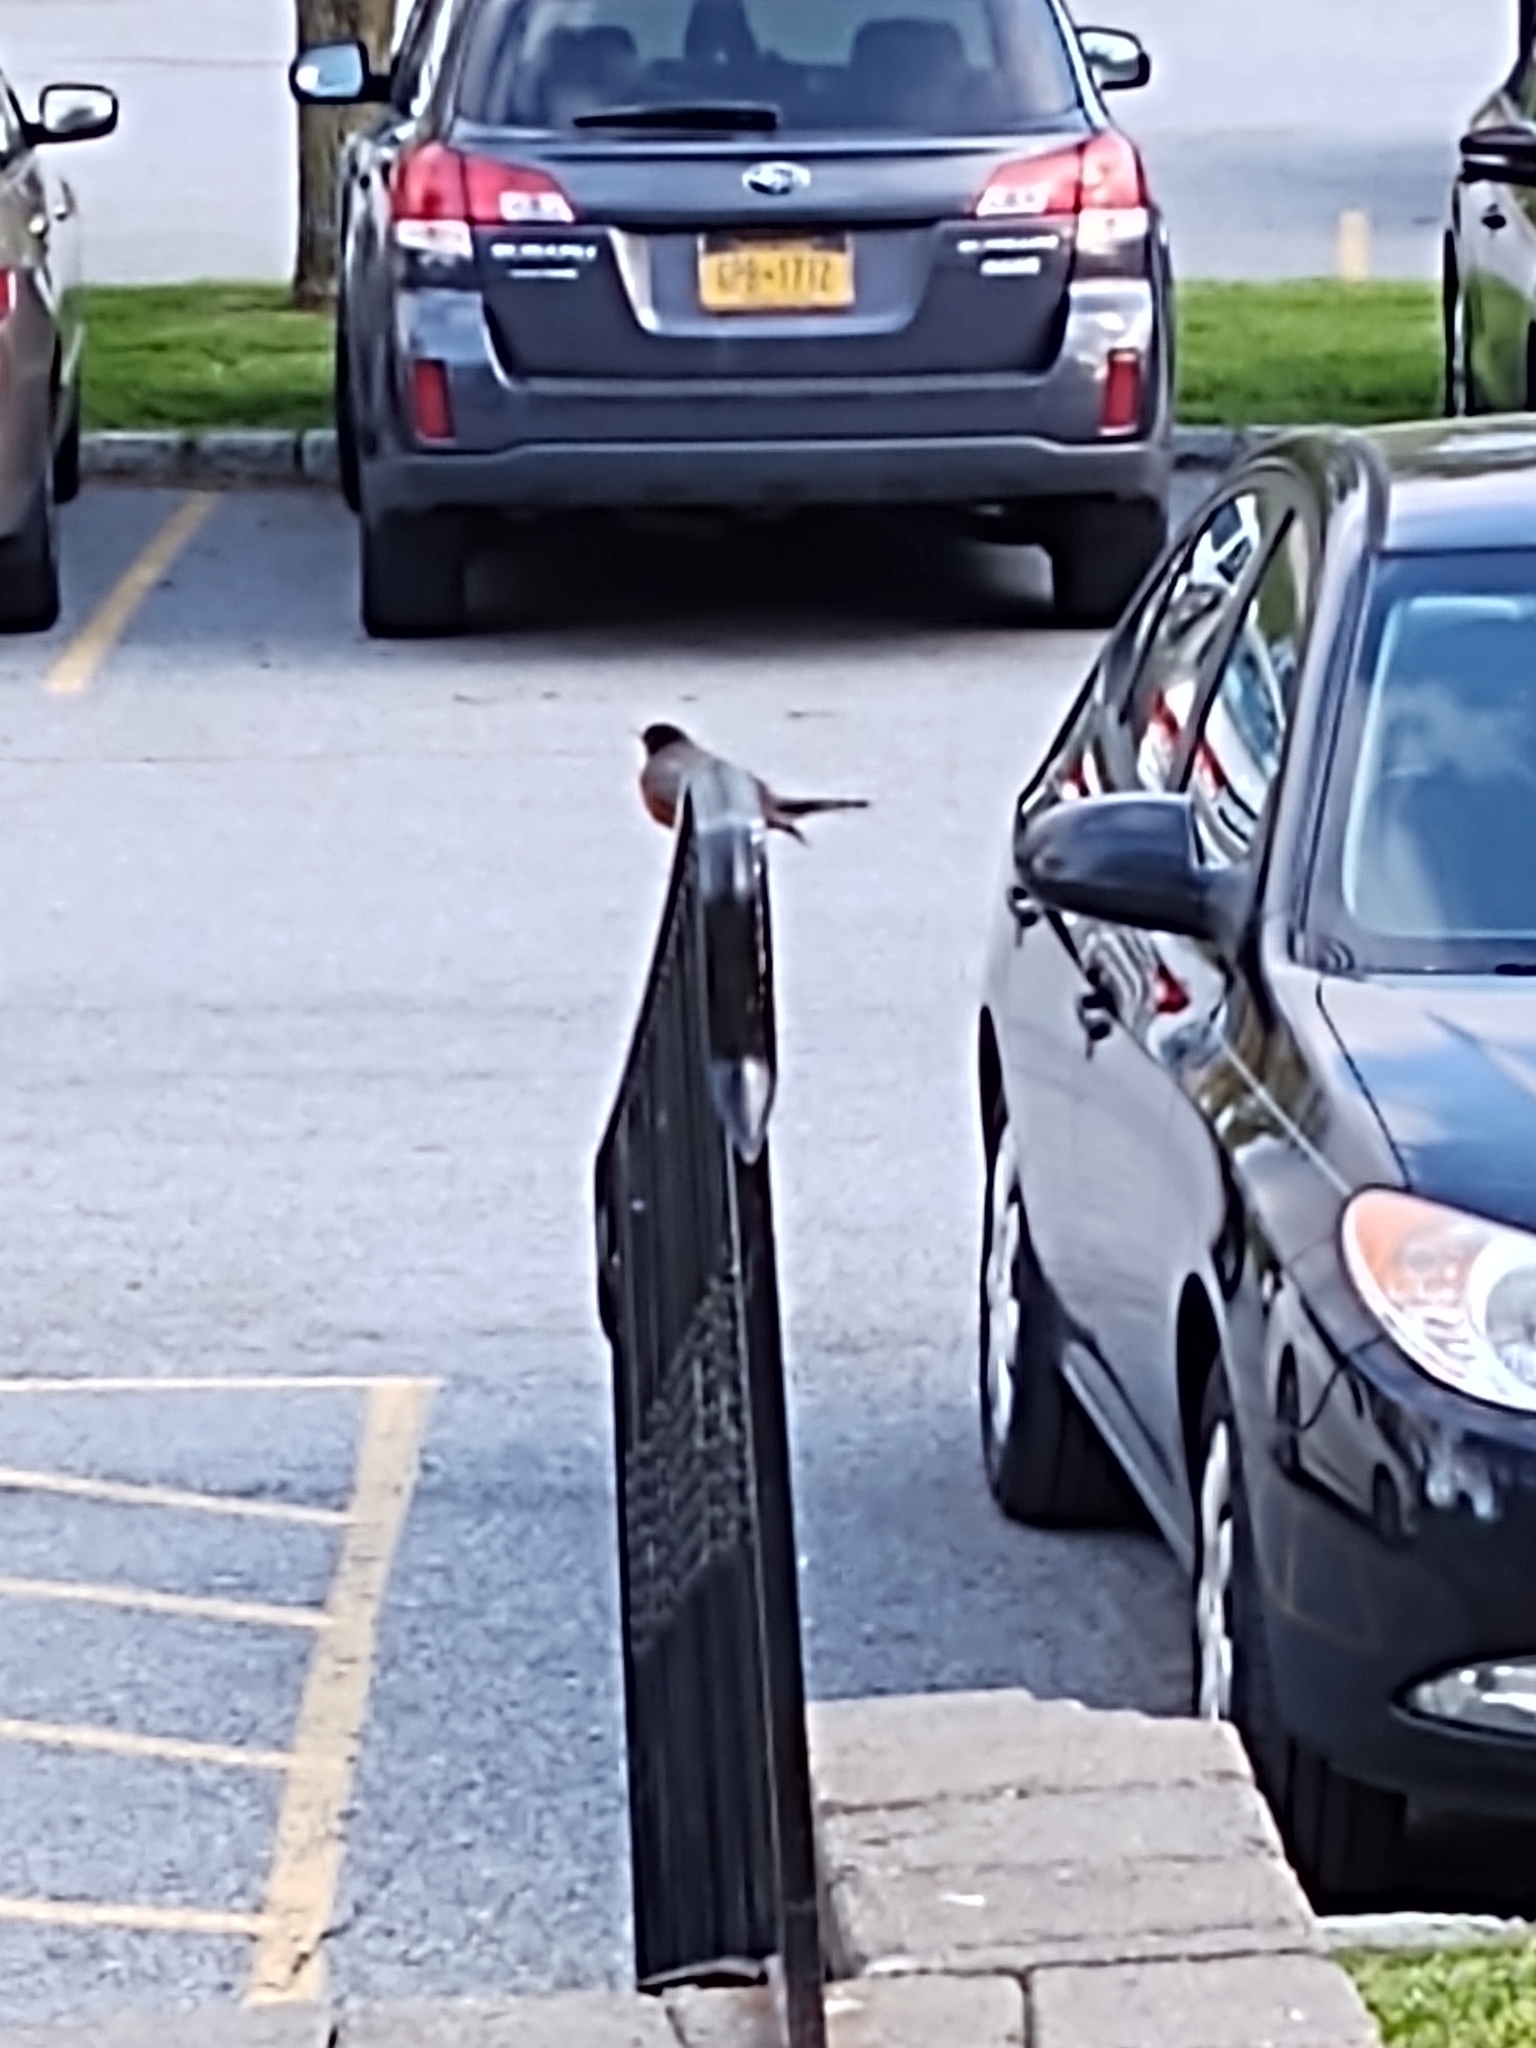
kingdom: Animalia
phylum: Chordata
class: Aves
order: Passeriformes
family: Turdidae
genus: Turdus
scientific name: Turdus migratorius
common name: American robin
